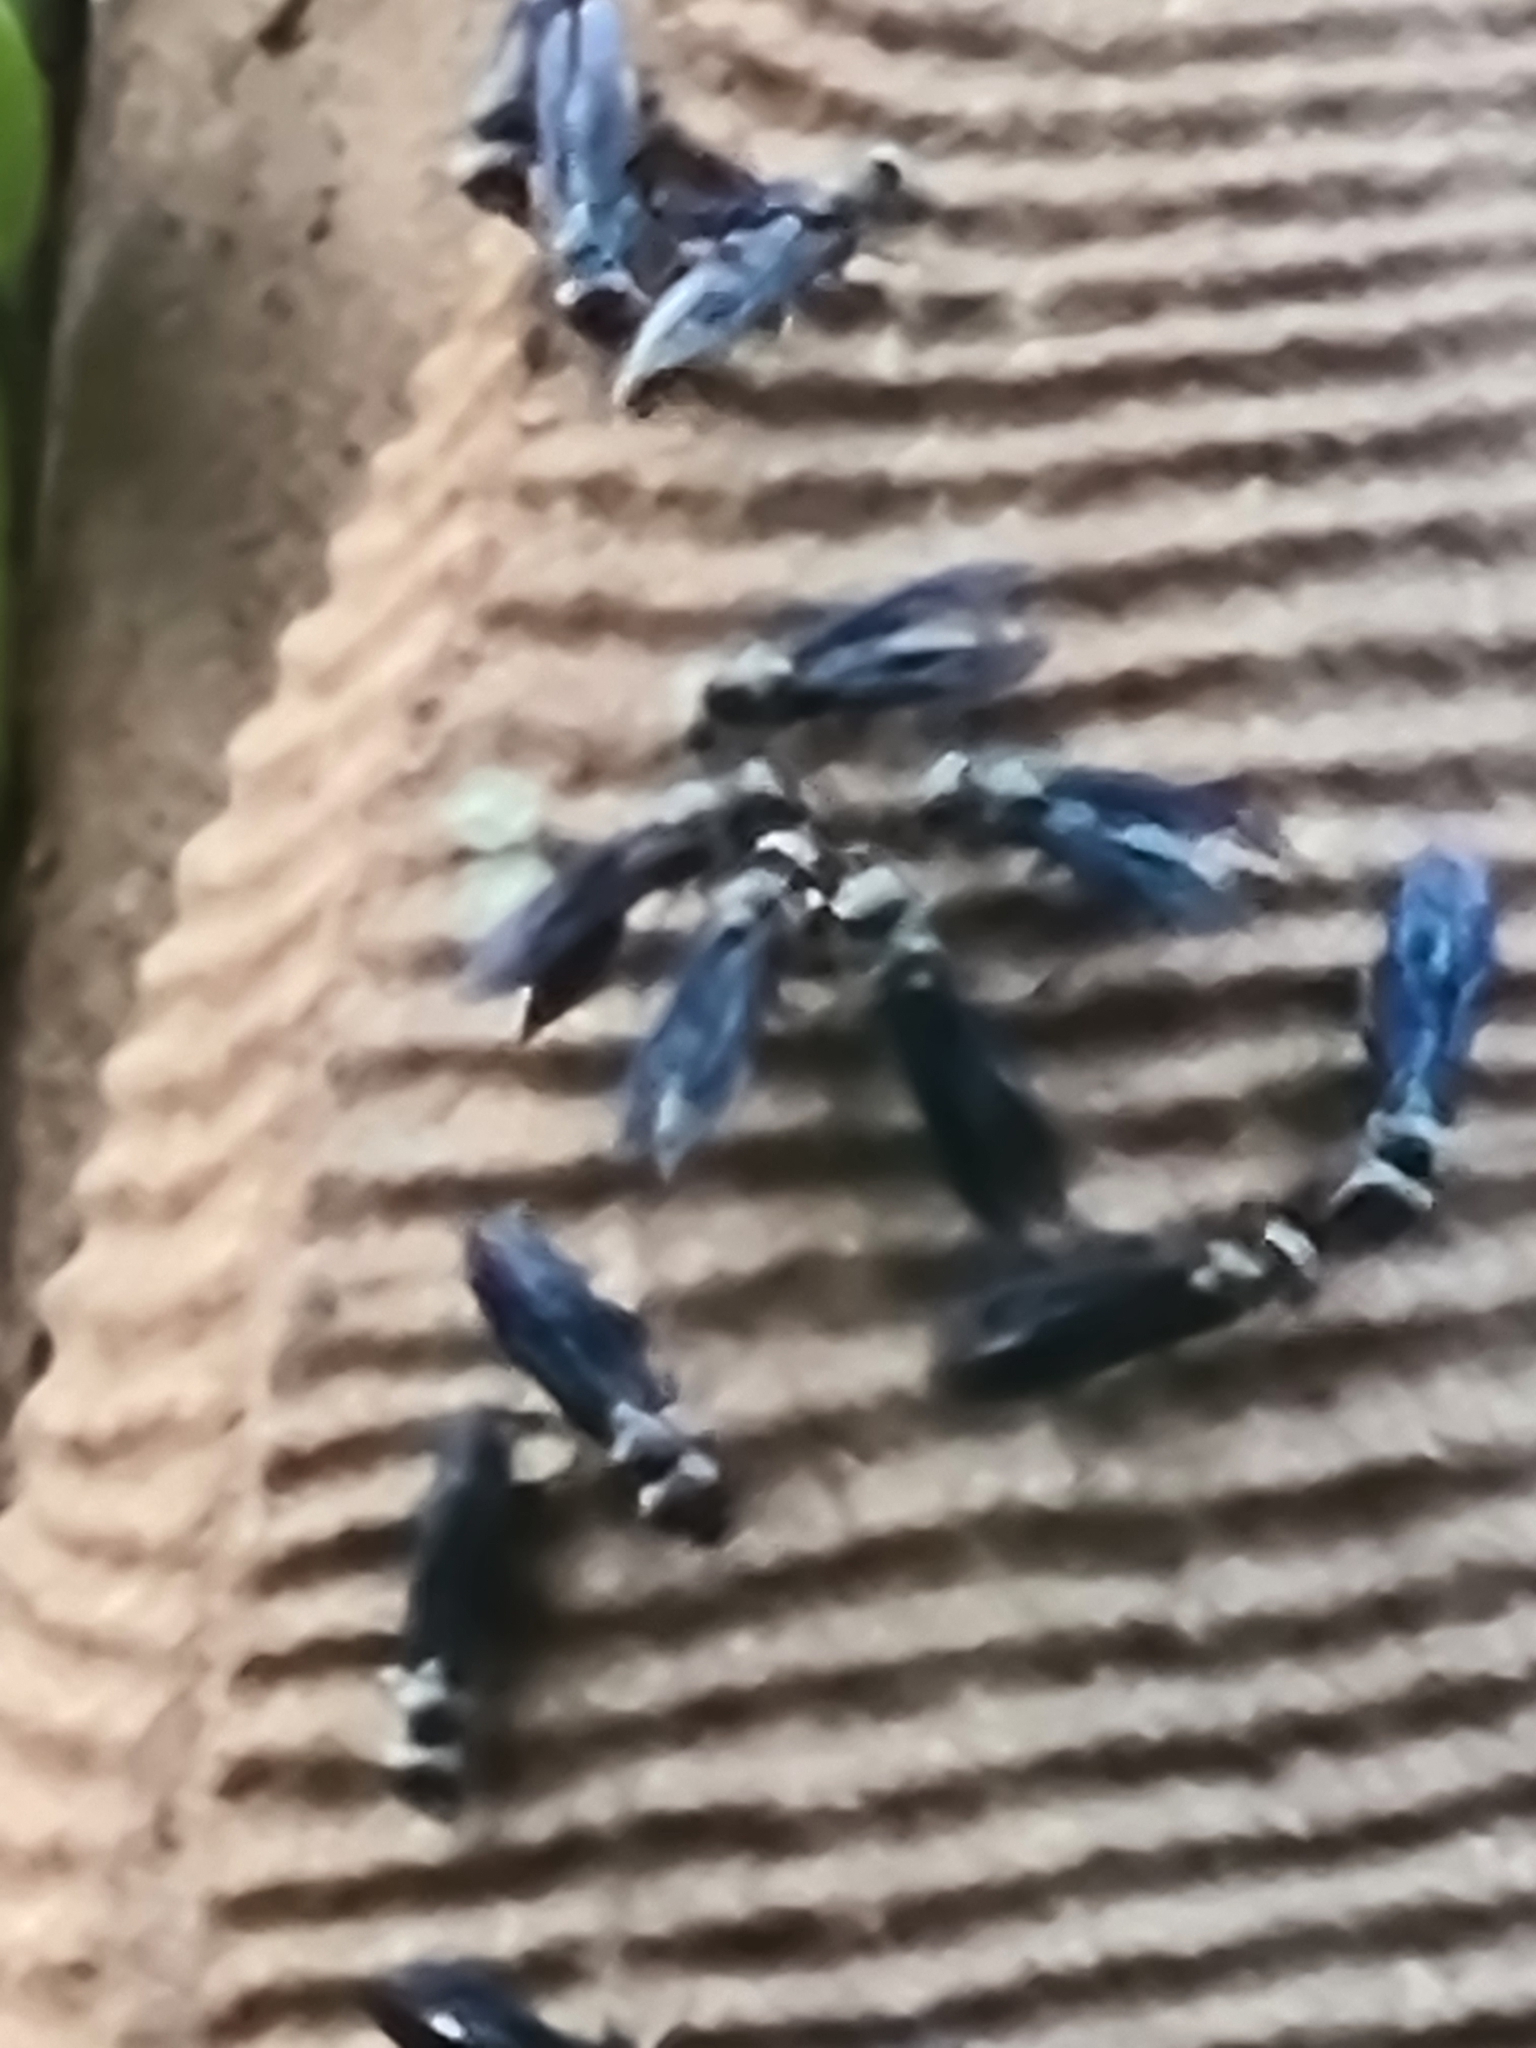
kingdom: Animalia
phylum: Arthropoda
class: Insecta
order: Hymenoptera
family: Vespidae
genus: Synoeca
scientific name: Synoeca surinama
